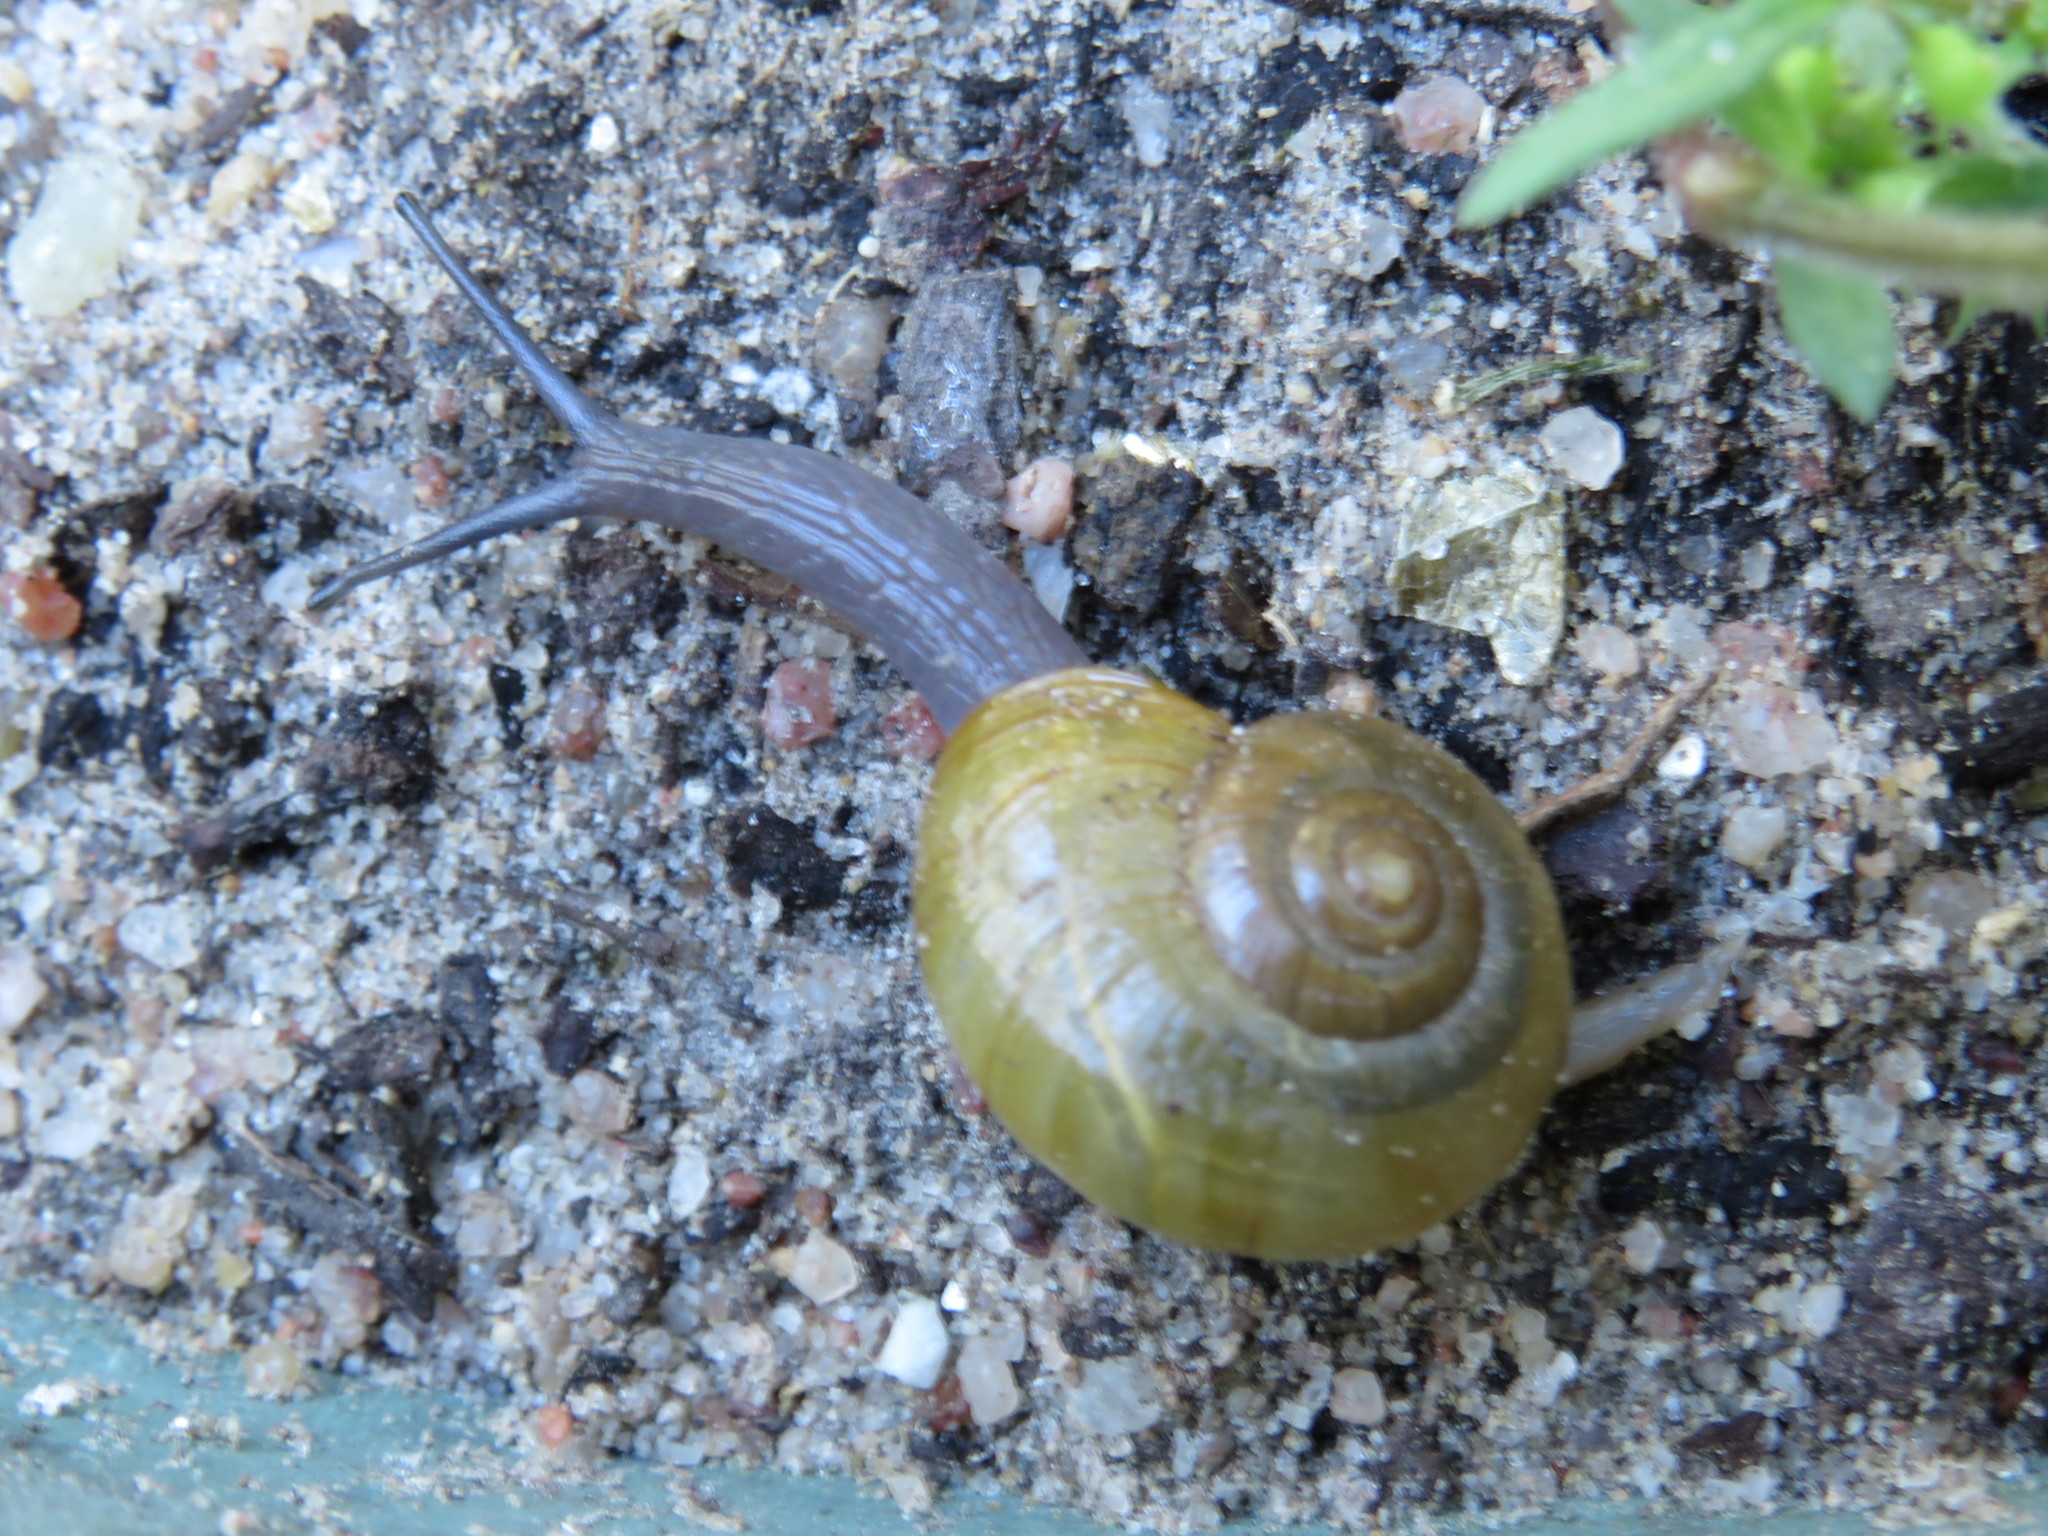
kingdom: Animalia
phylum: Mollusca
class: Gastropoda
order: Stylommatophora
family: Rhytididae
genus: Nata
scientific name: Nata vernicosa
